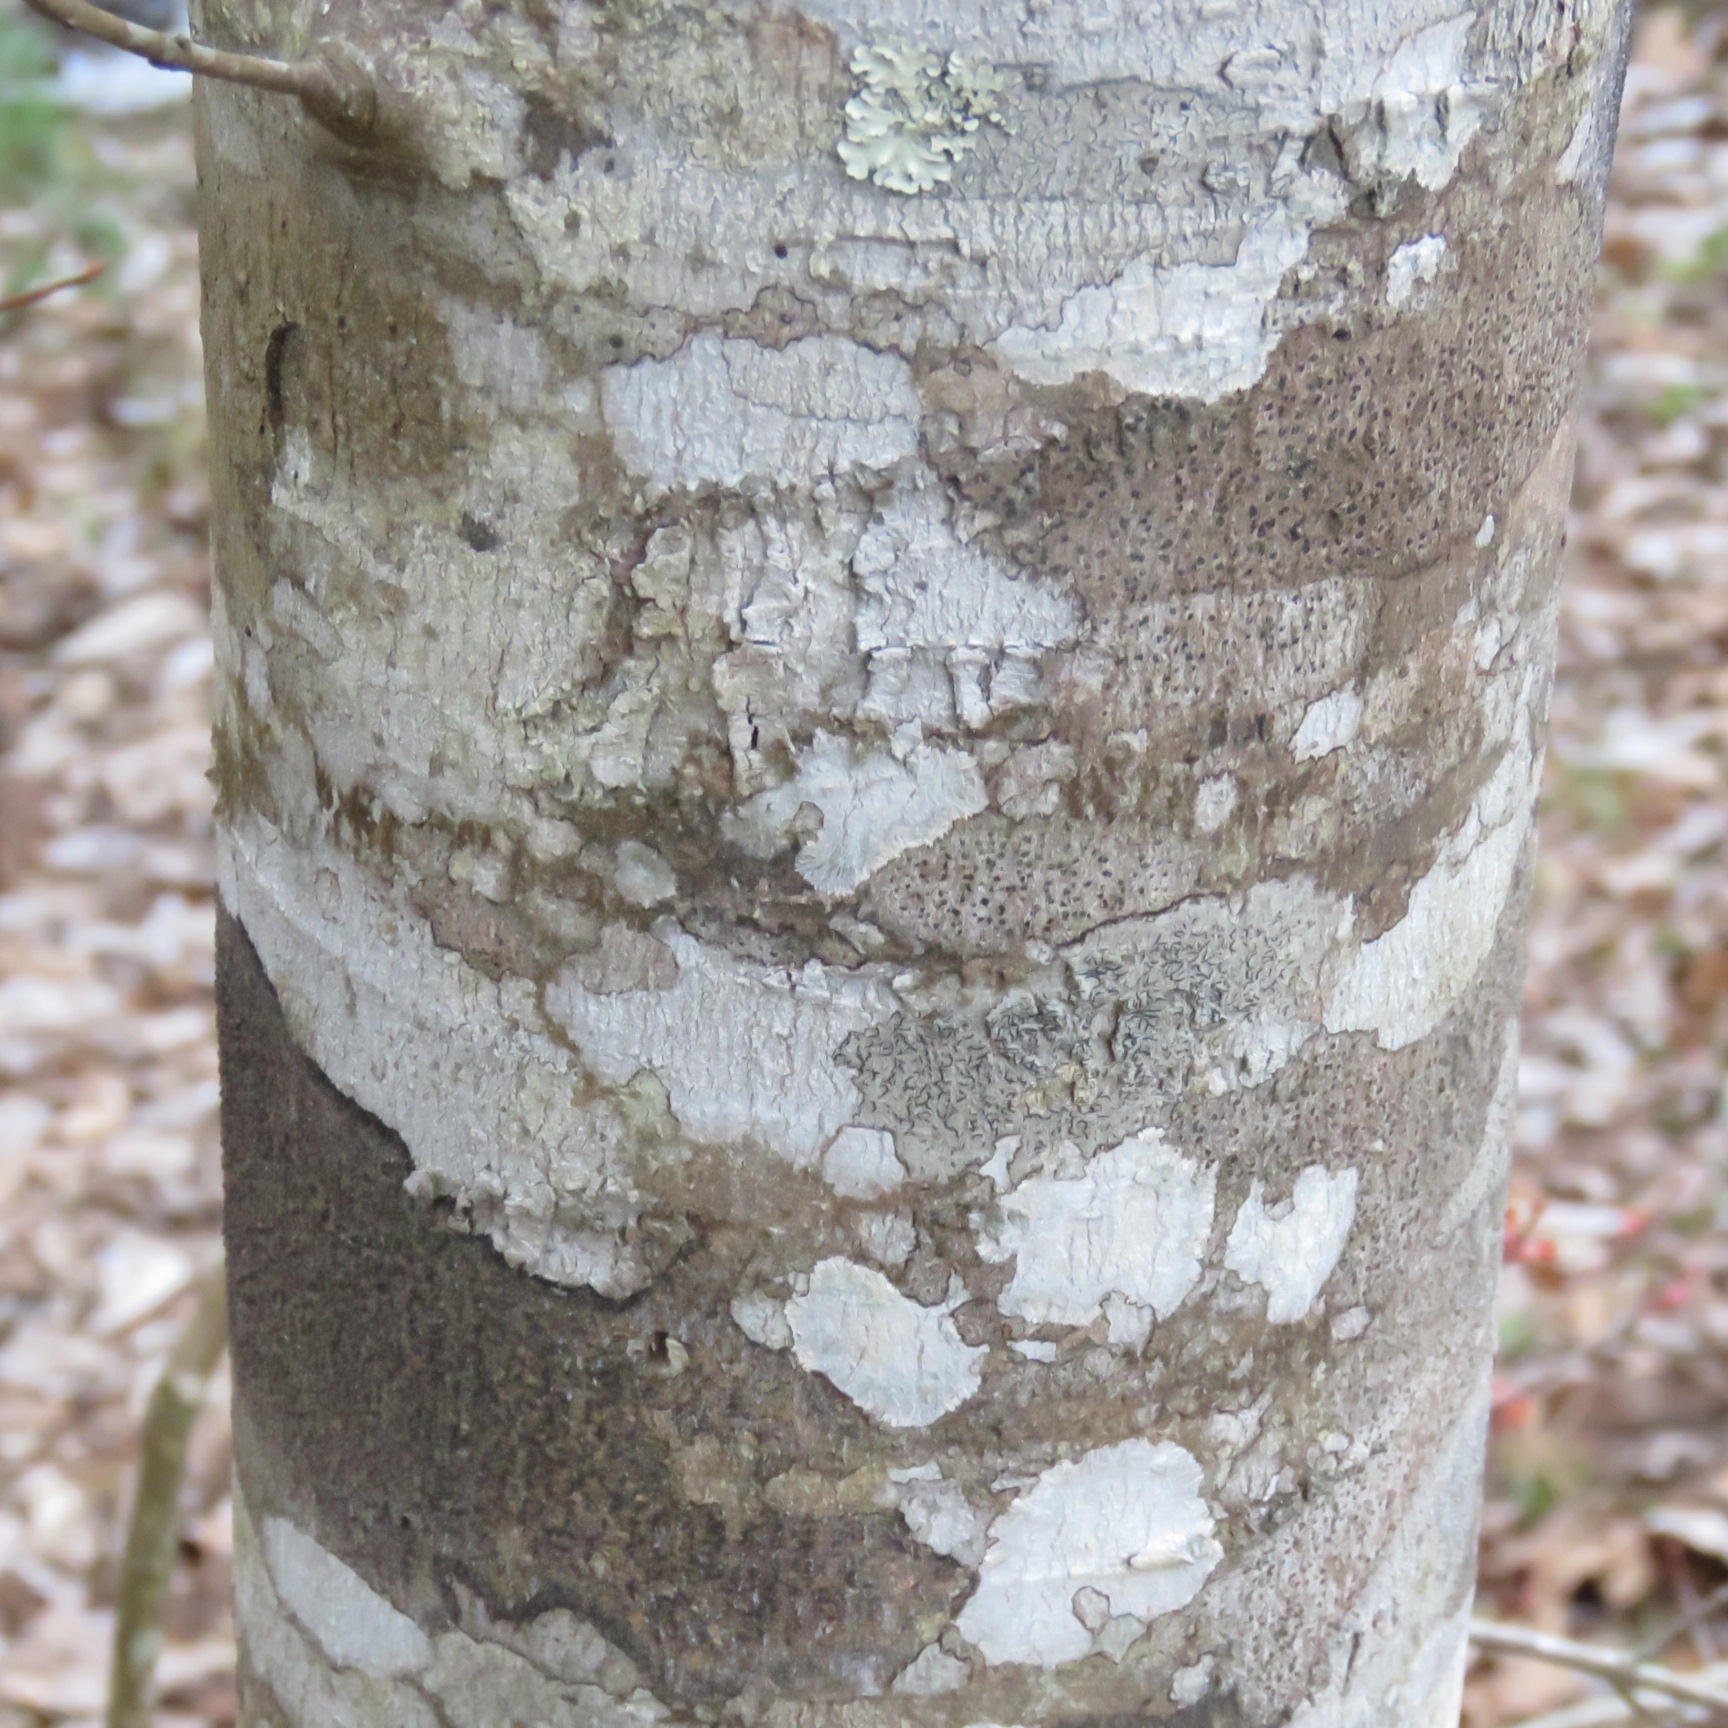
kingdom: Plantae
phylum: Tracheophyta
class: Magnoliopsida
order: Sapindales
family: Sapindaceae
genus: Acer
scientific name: Acer rubrum
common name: Red maple
